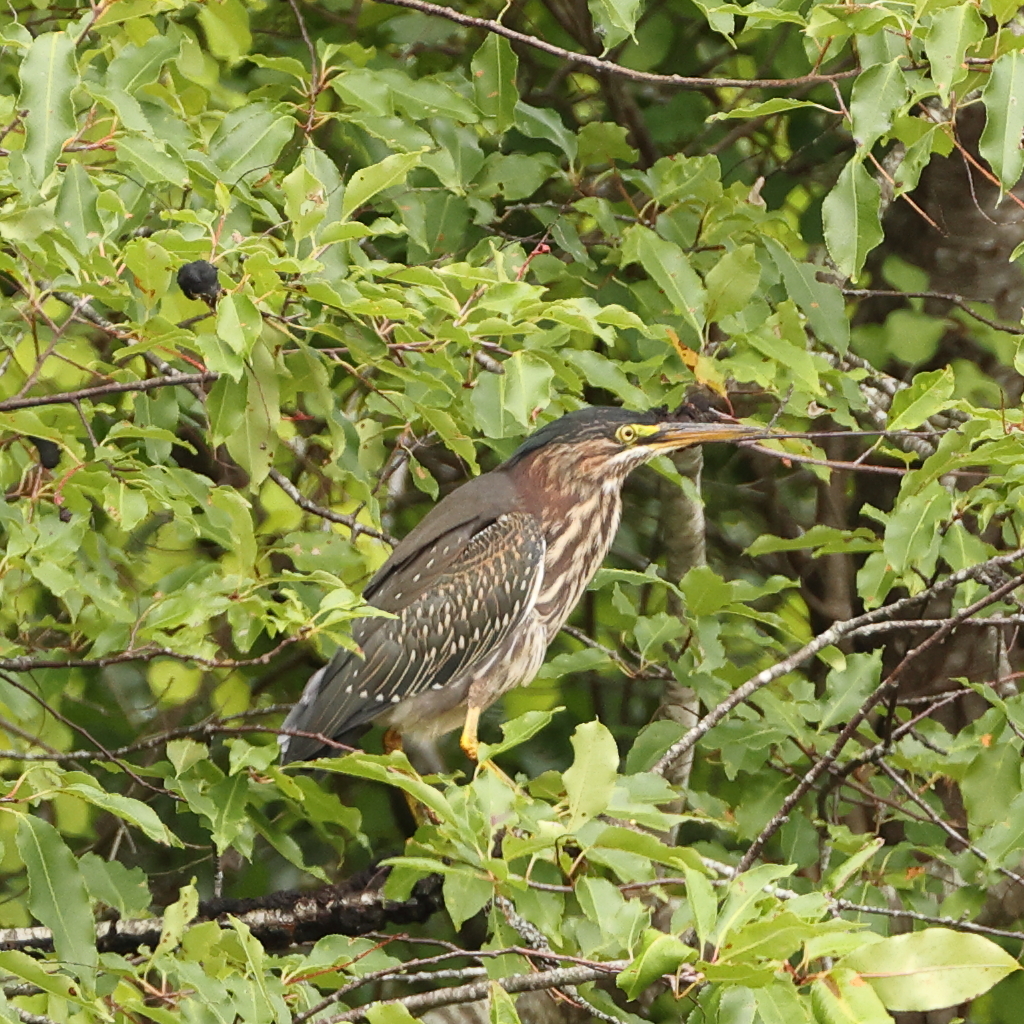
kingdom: Animalia
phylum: Chordata
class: Aves
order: Pelecaniformes
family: Ardeidae
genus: Butorides
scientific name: Butorides virescens
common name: Green heron
